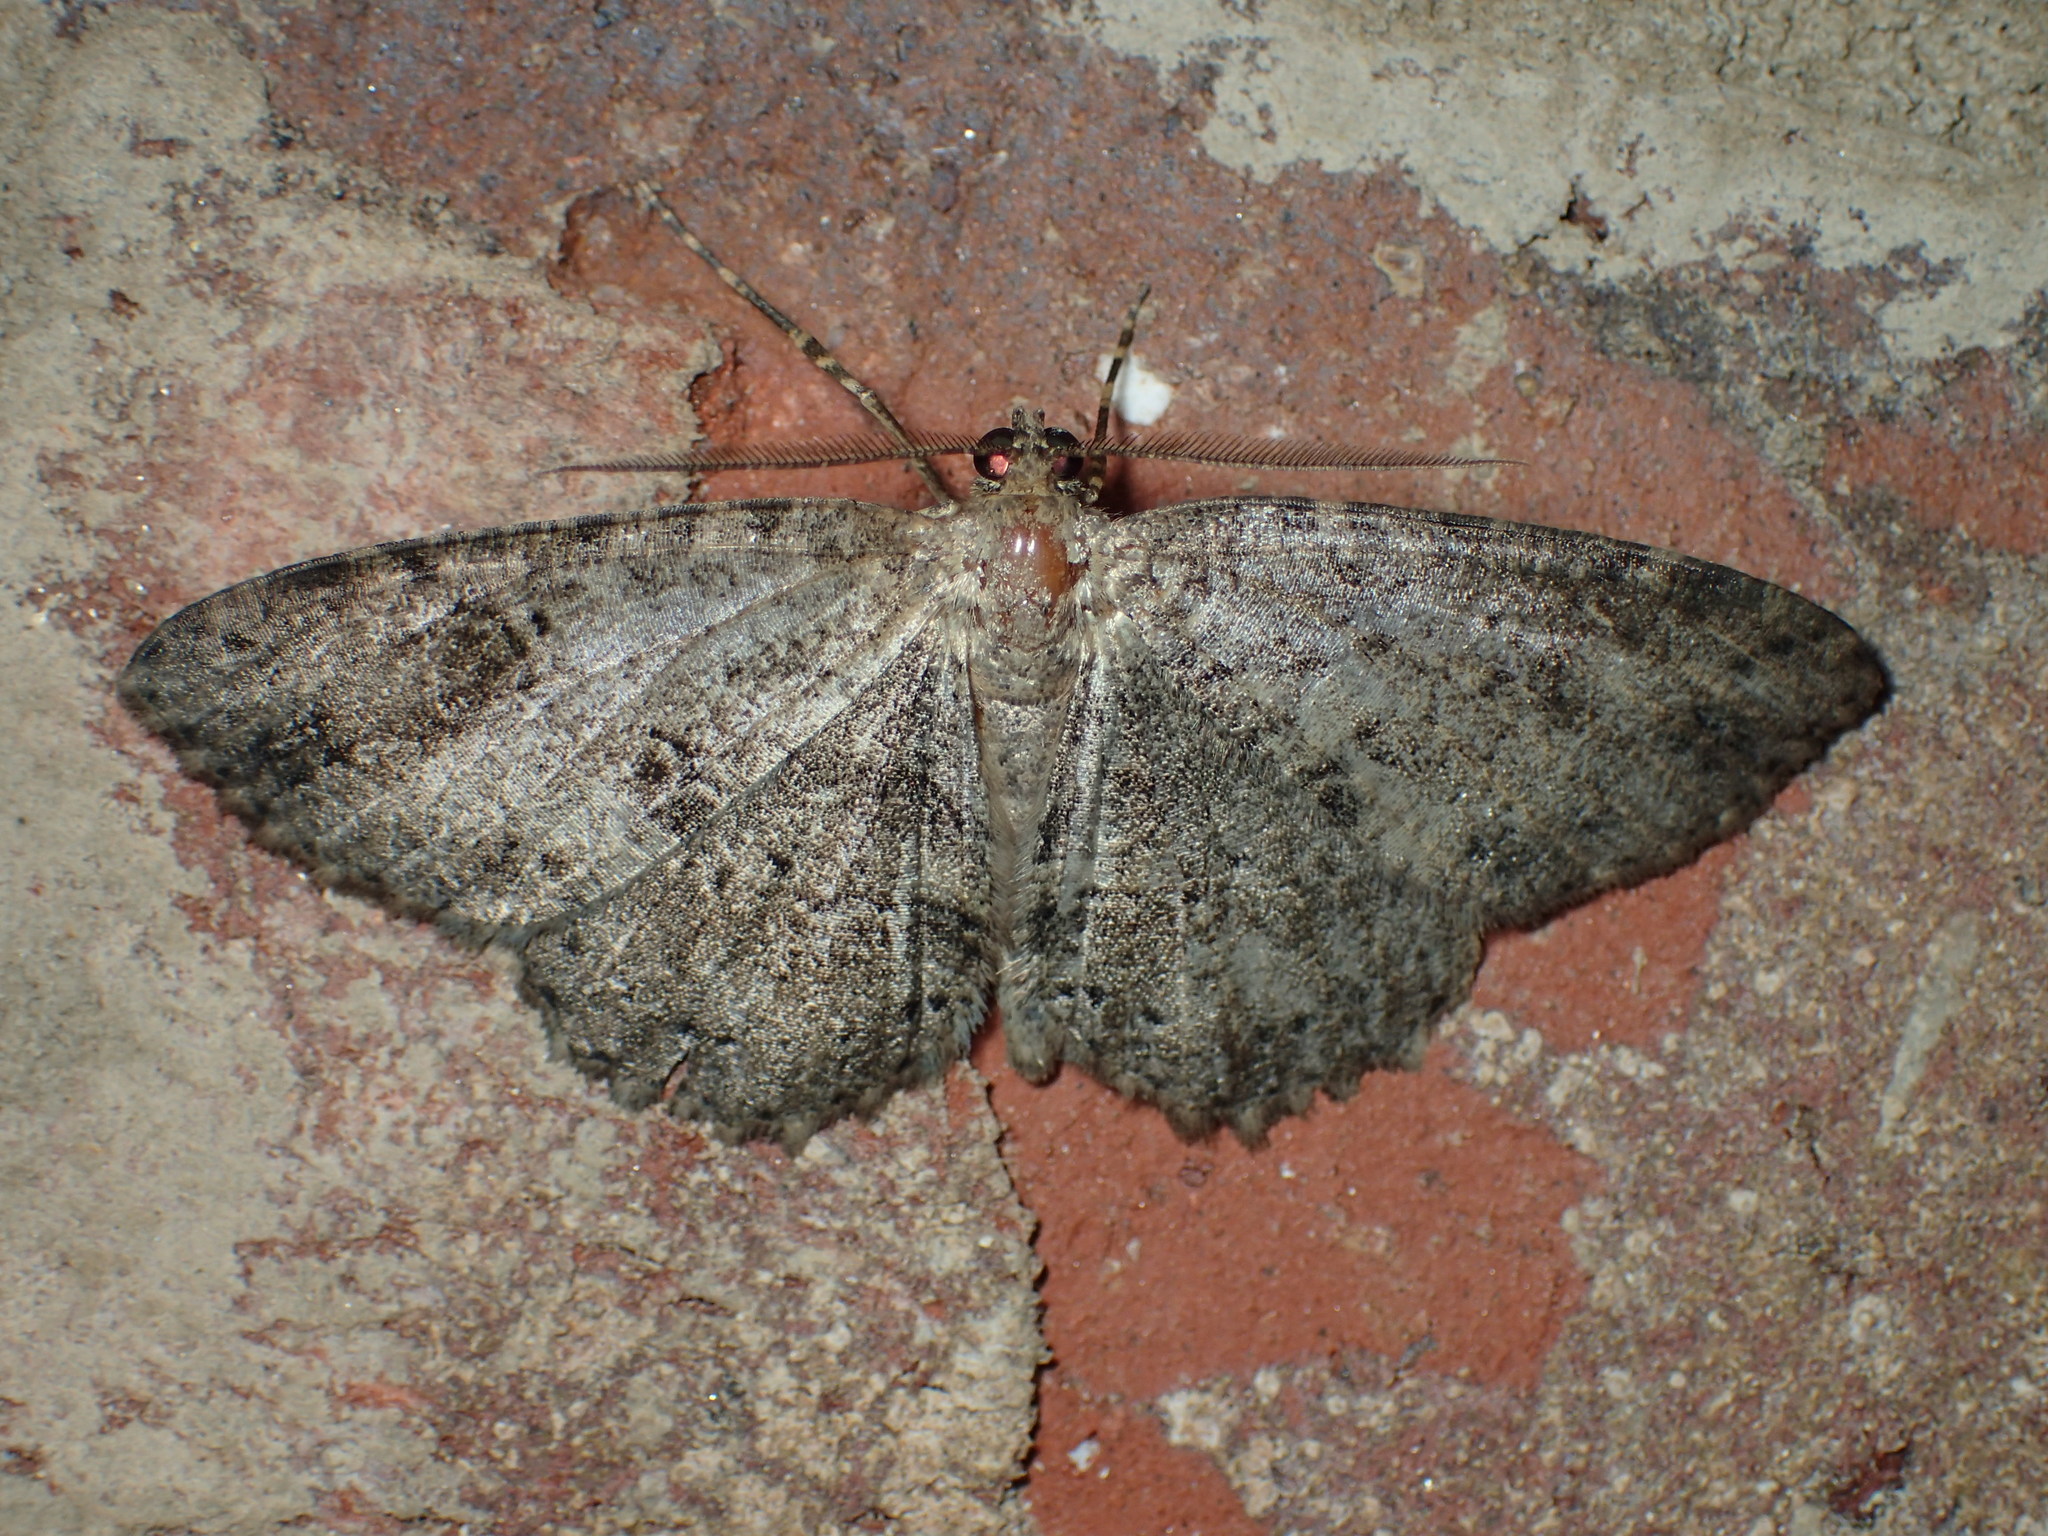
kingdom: Animalia
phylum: Arthropoda
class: Insecta
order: Lepidoptera
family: Geometridae
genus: Melanolophia
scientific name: Melanolophia canadaria
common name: Canadian melanolophia
